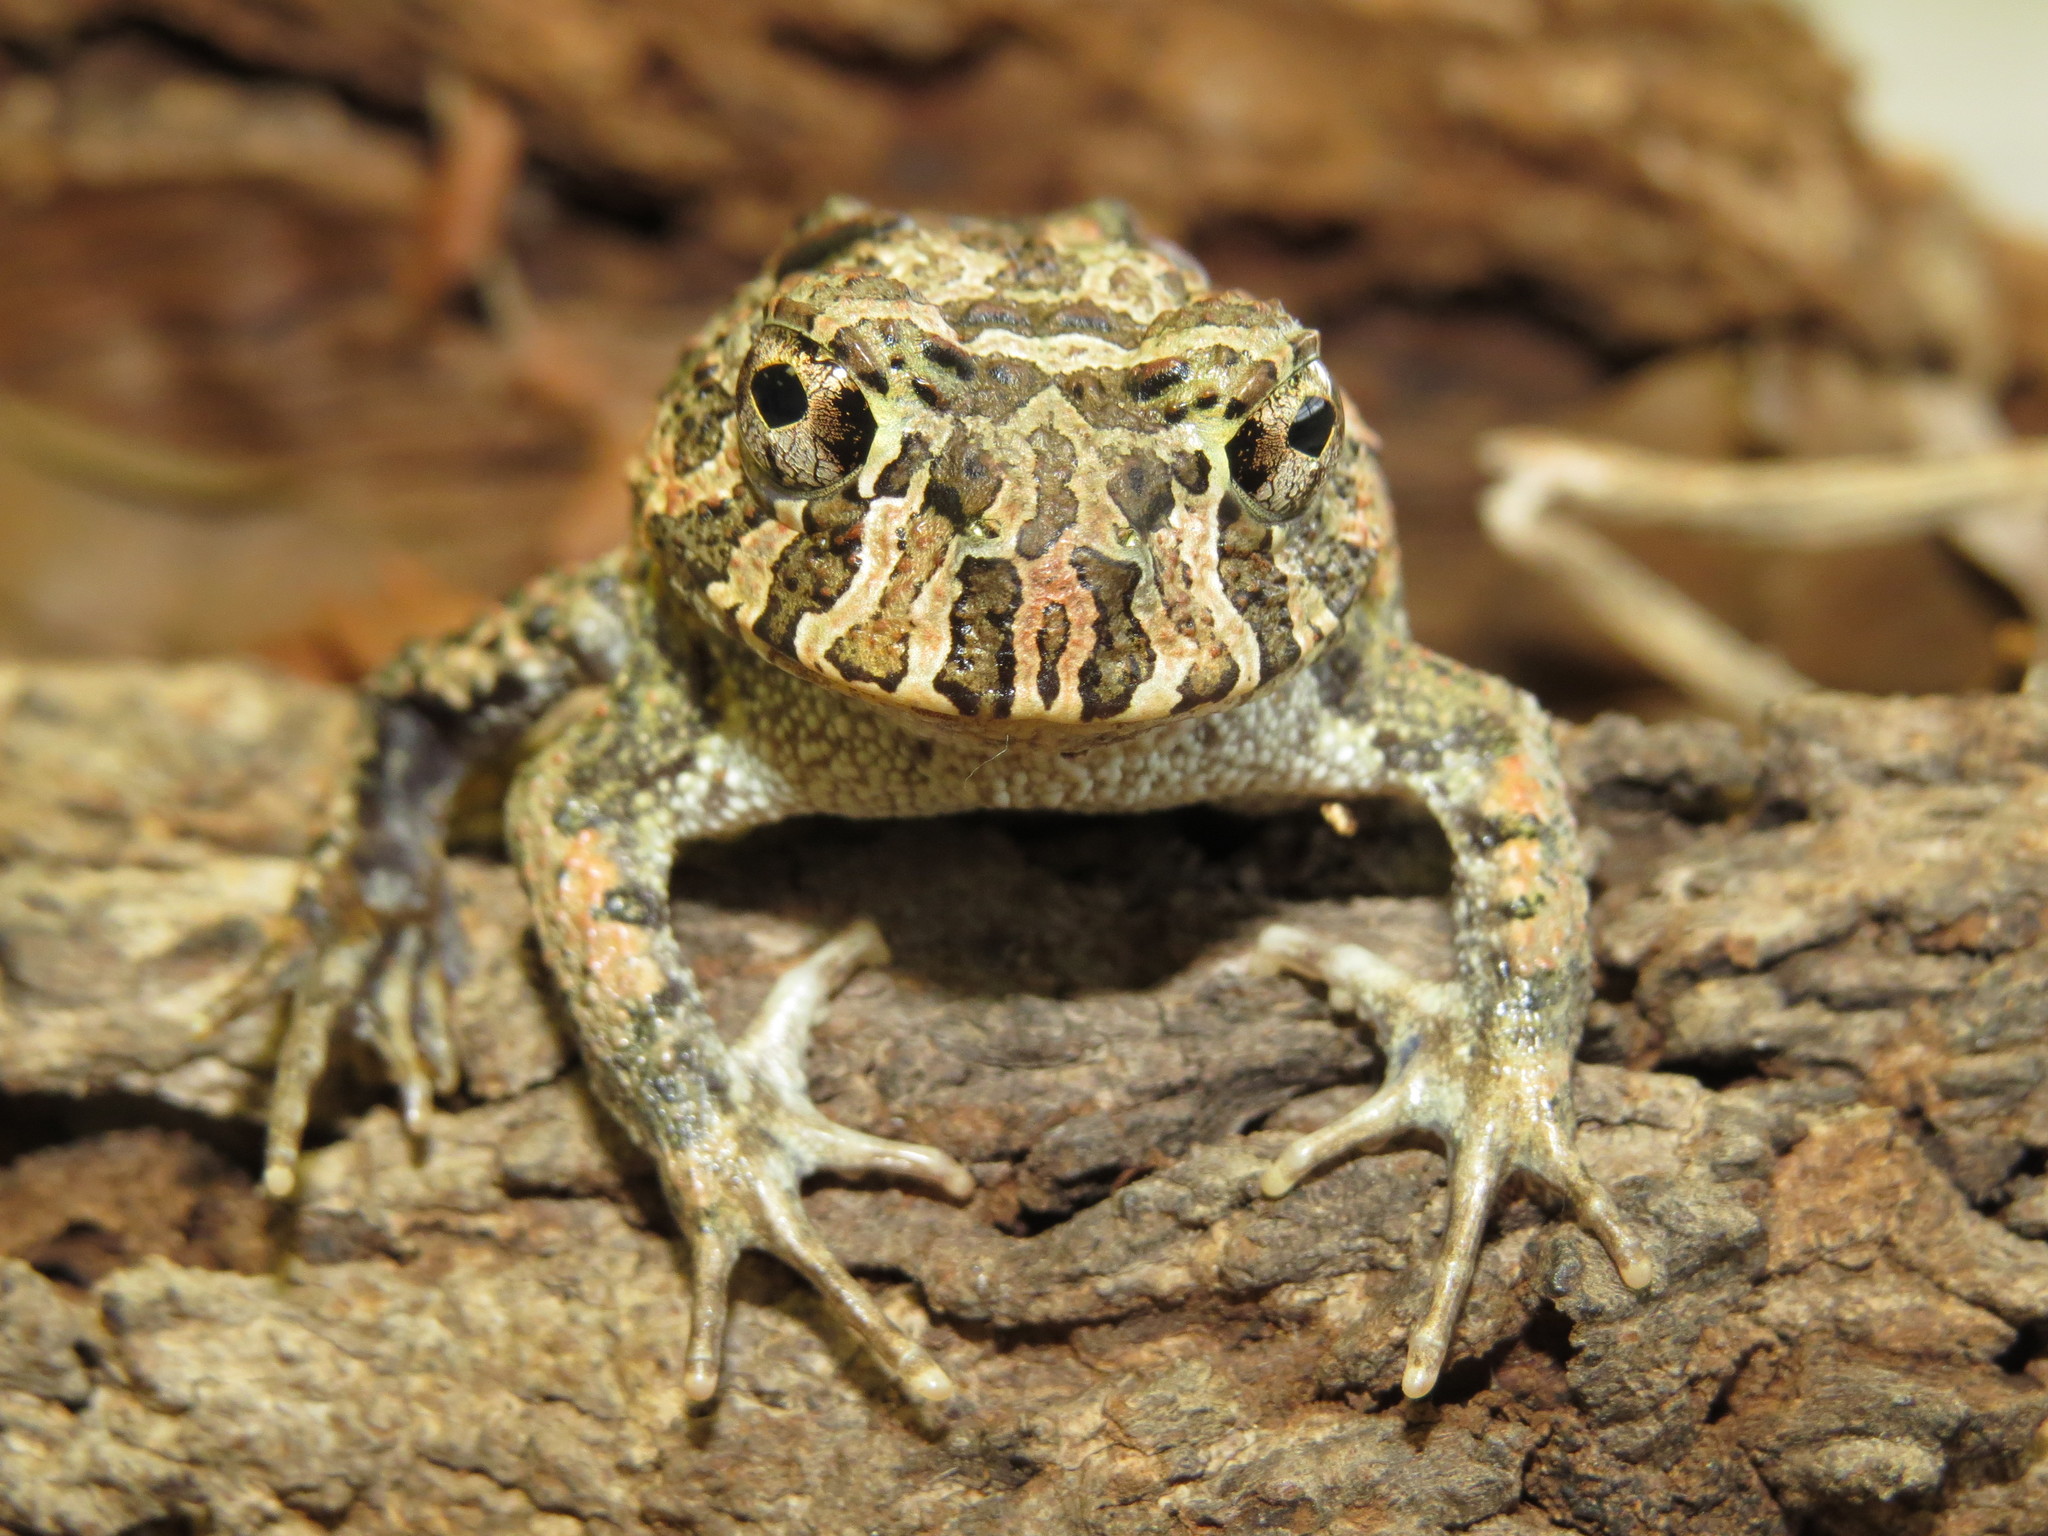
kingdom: Animalia
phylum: Chordata
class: Amphibia
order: Anura
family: Odontophrynidae
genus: Odontophrynus
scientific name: Odontophrynus carvalhoi
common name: Carvalho's escuerzo
